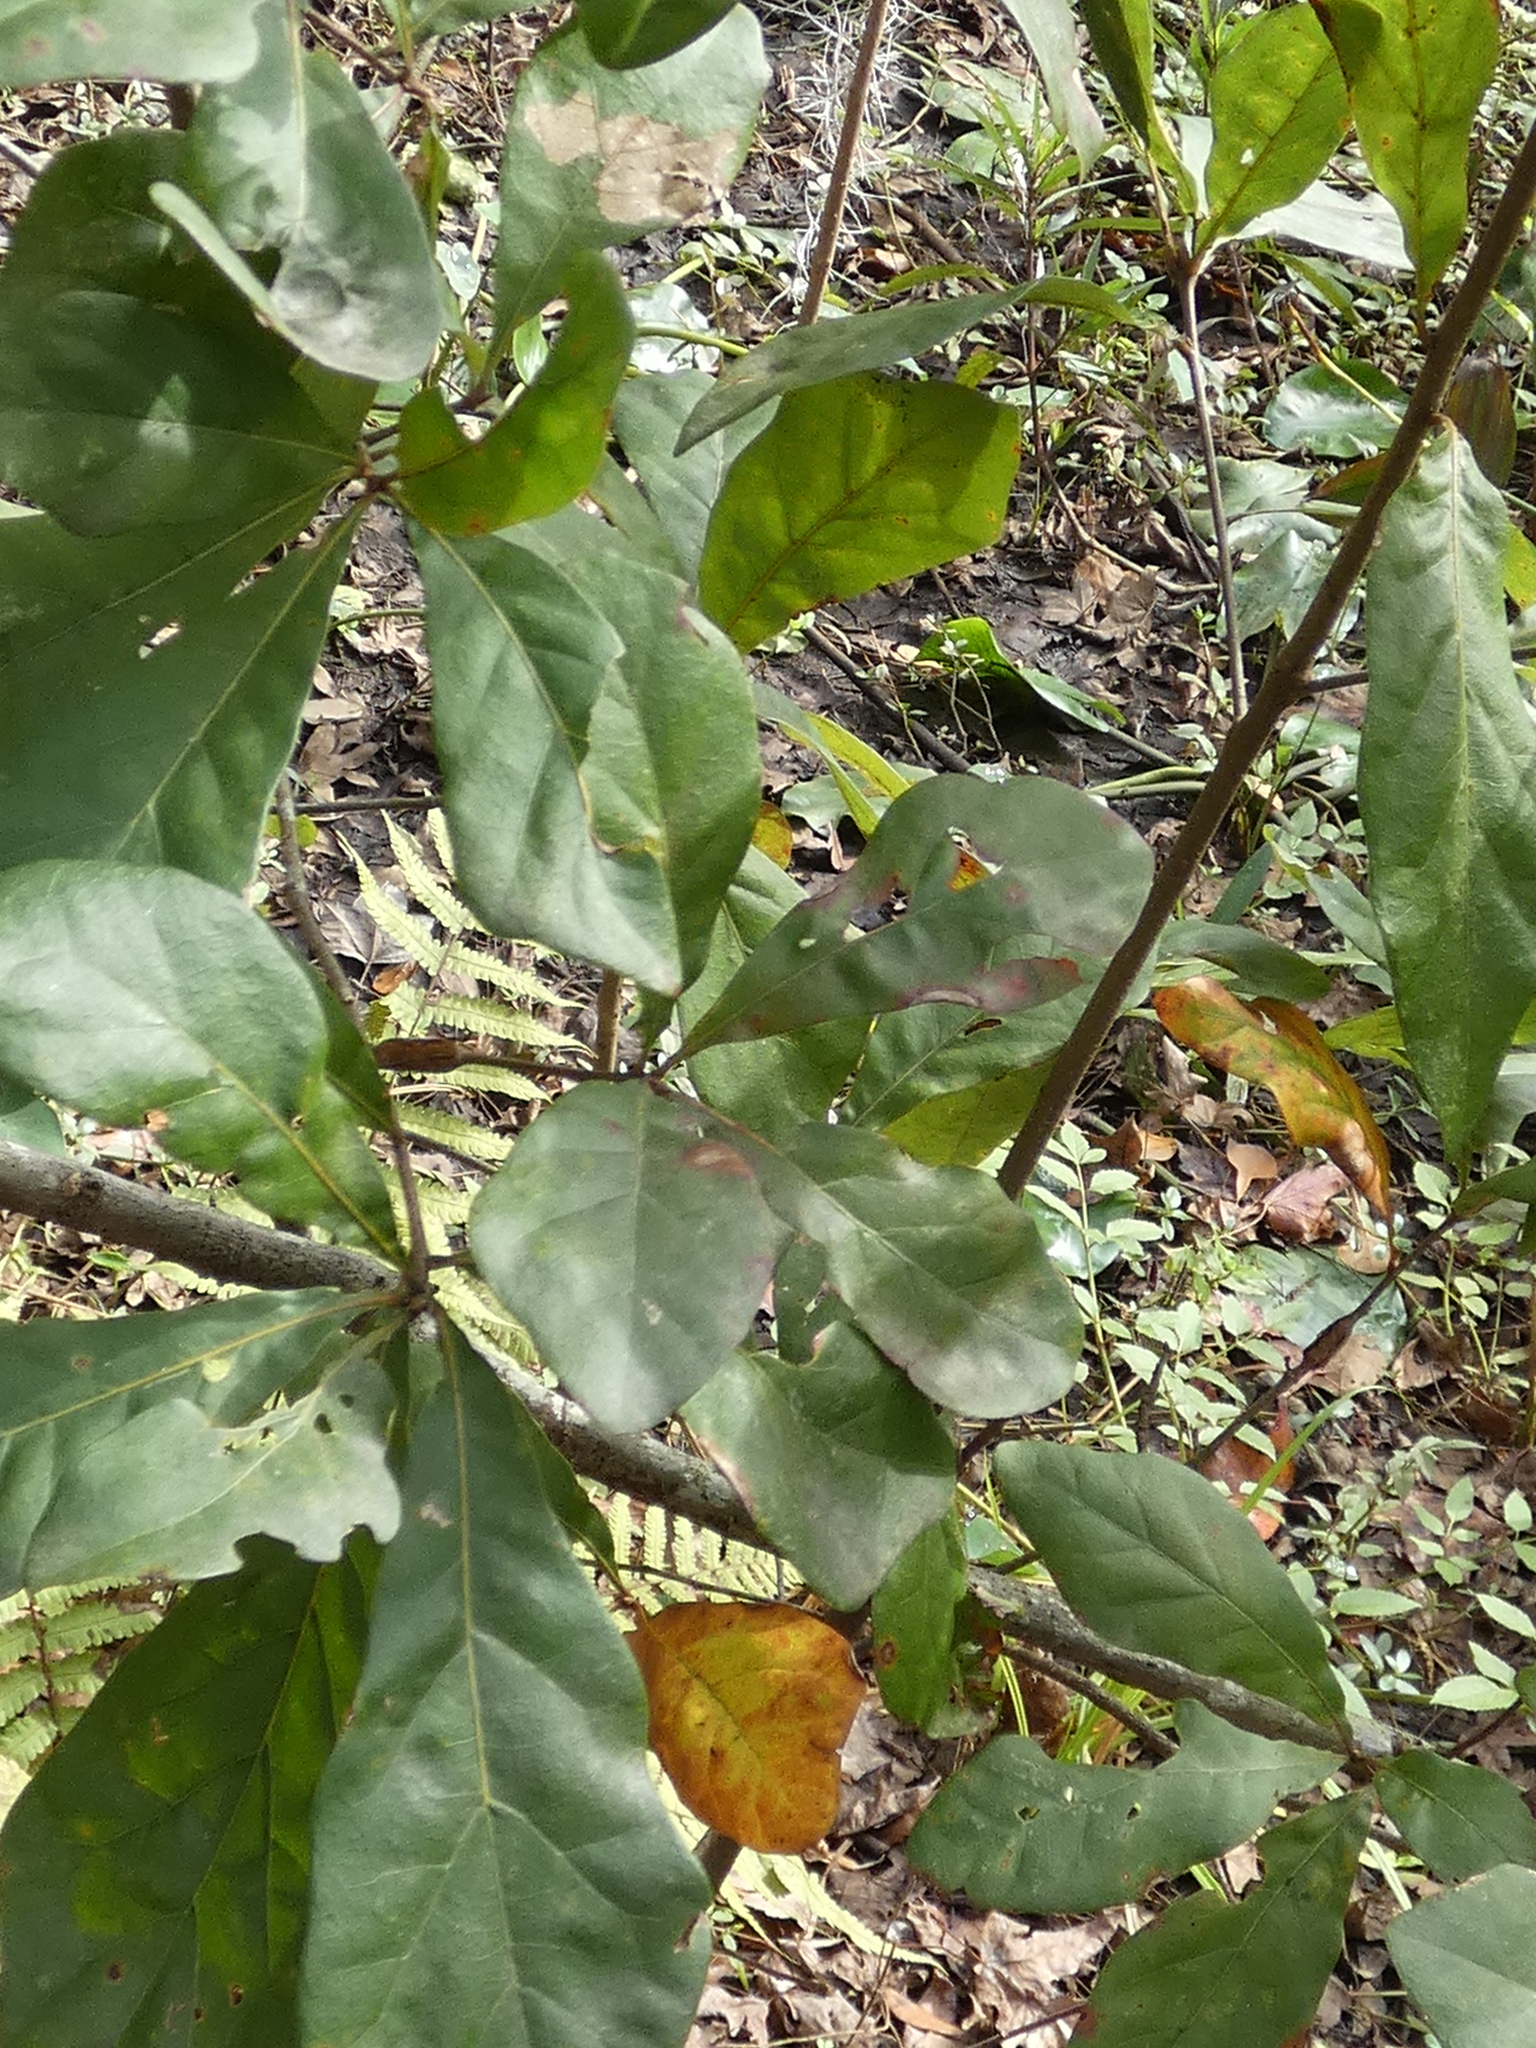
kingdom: Plantae
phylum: Tracheophyta
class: Magnoliopsida
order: Fagales
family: Fagaceae
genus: Quercus
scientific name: Quercus nigra
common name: Water oak
